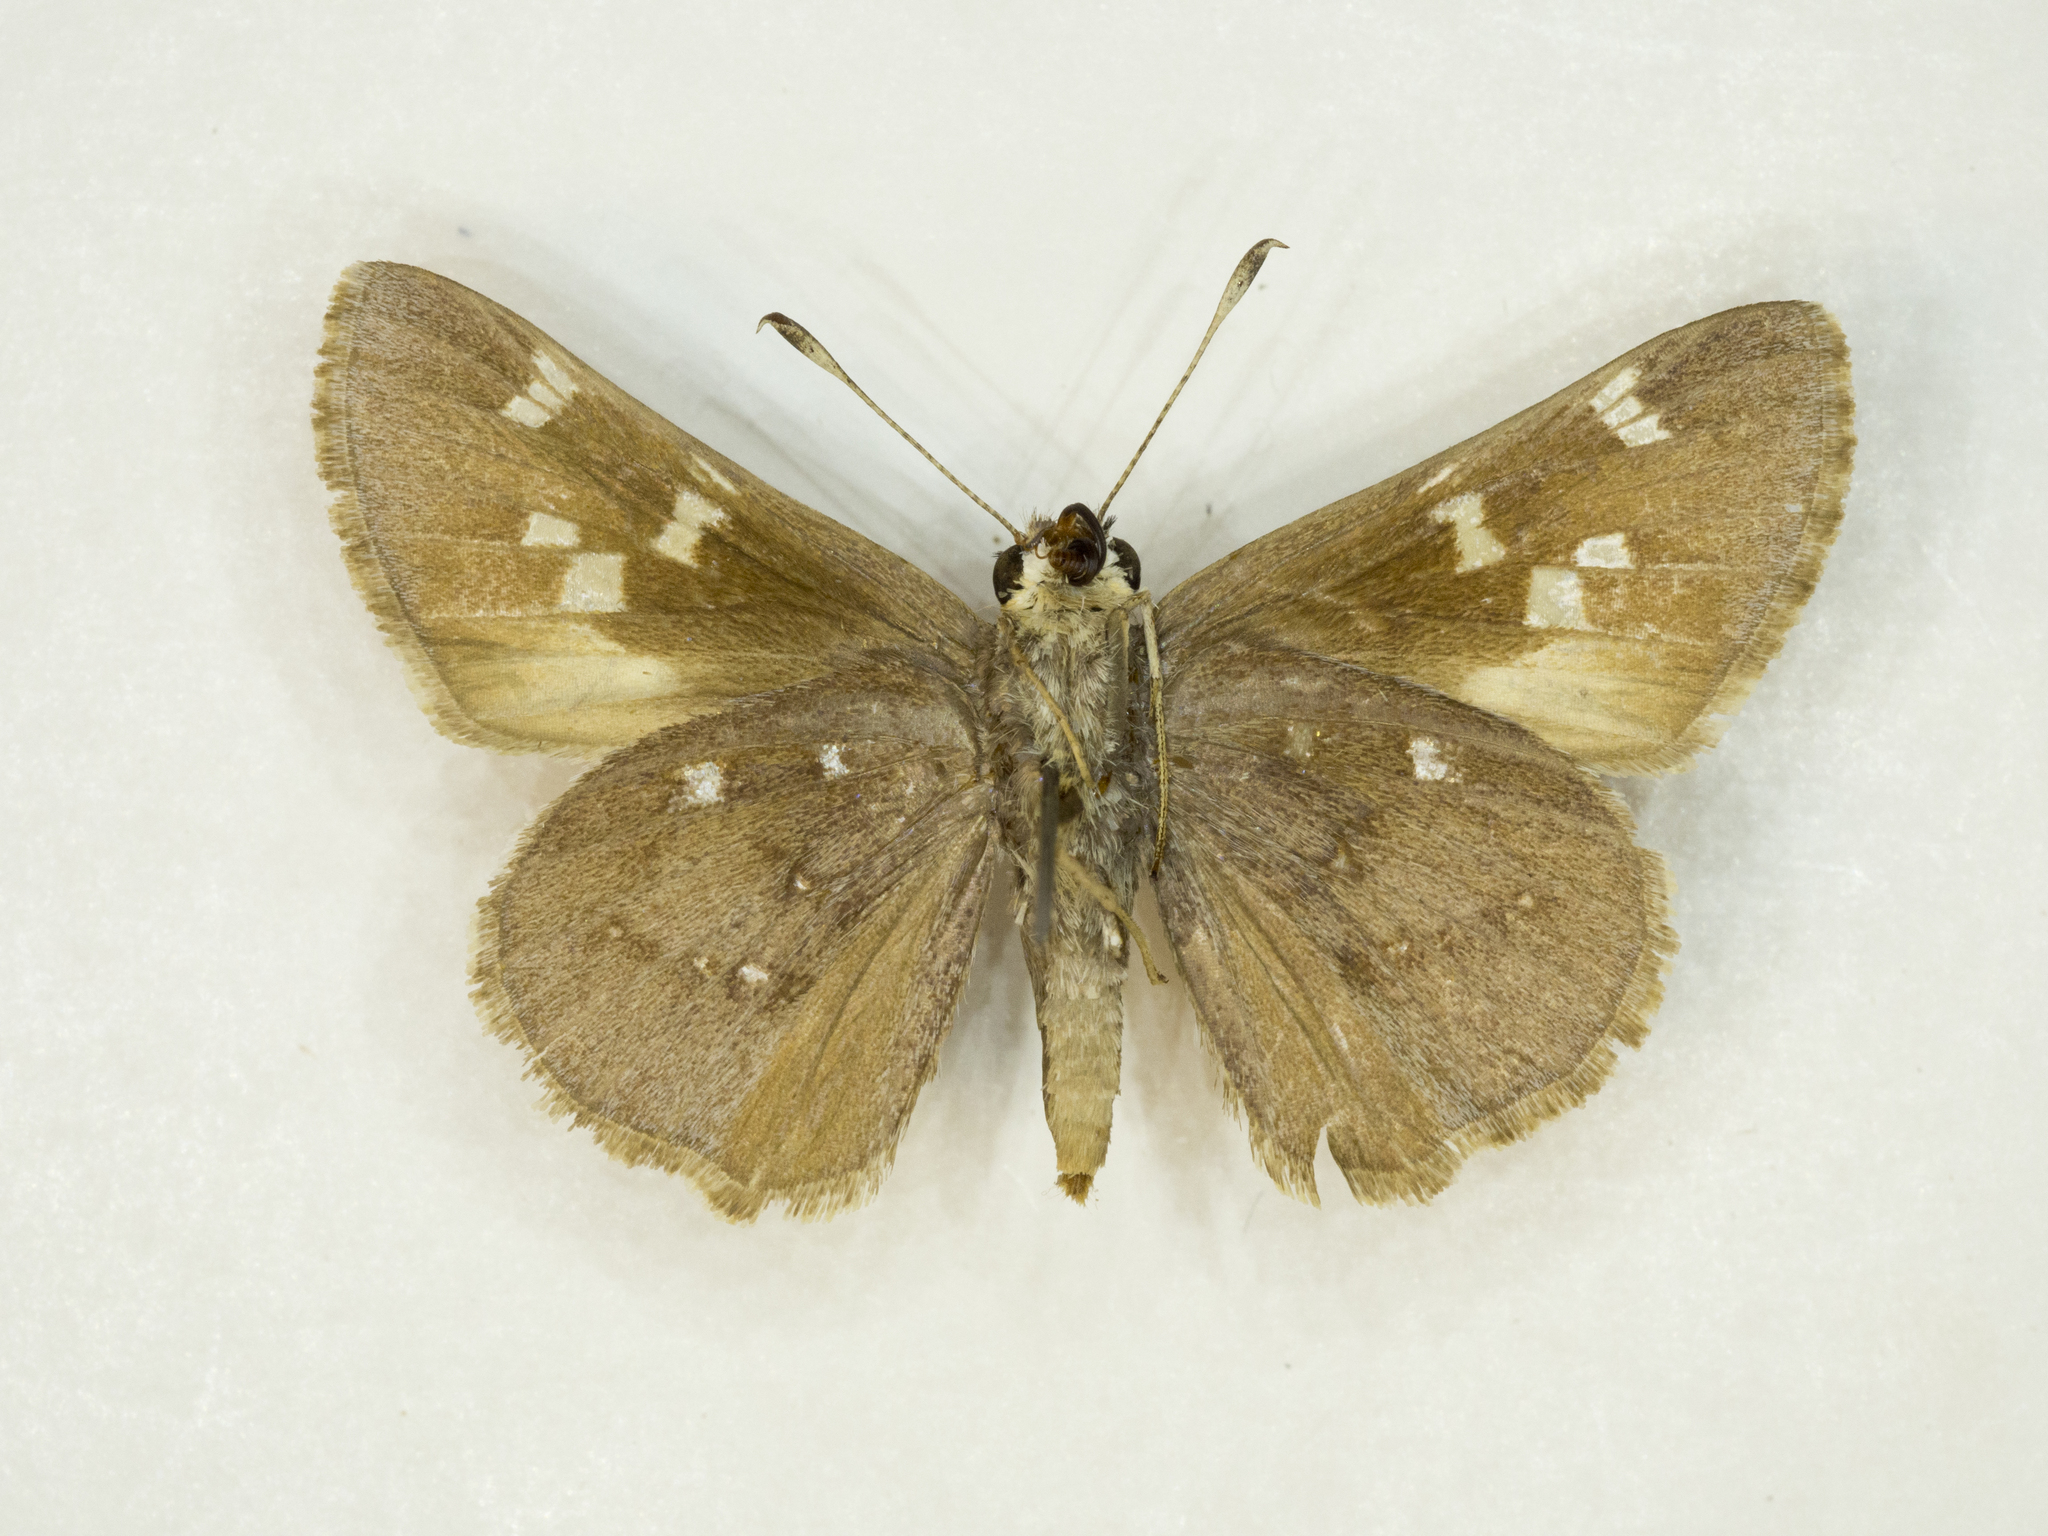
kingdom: Animalia
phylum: Arthropoda
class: Insecta
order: Lepidoptera
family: Hesperiidae
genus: Atrytonopsis
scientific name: Atrytonopsis vierecki
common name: Viereck's skipper
